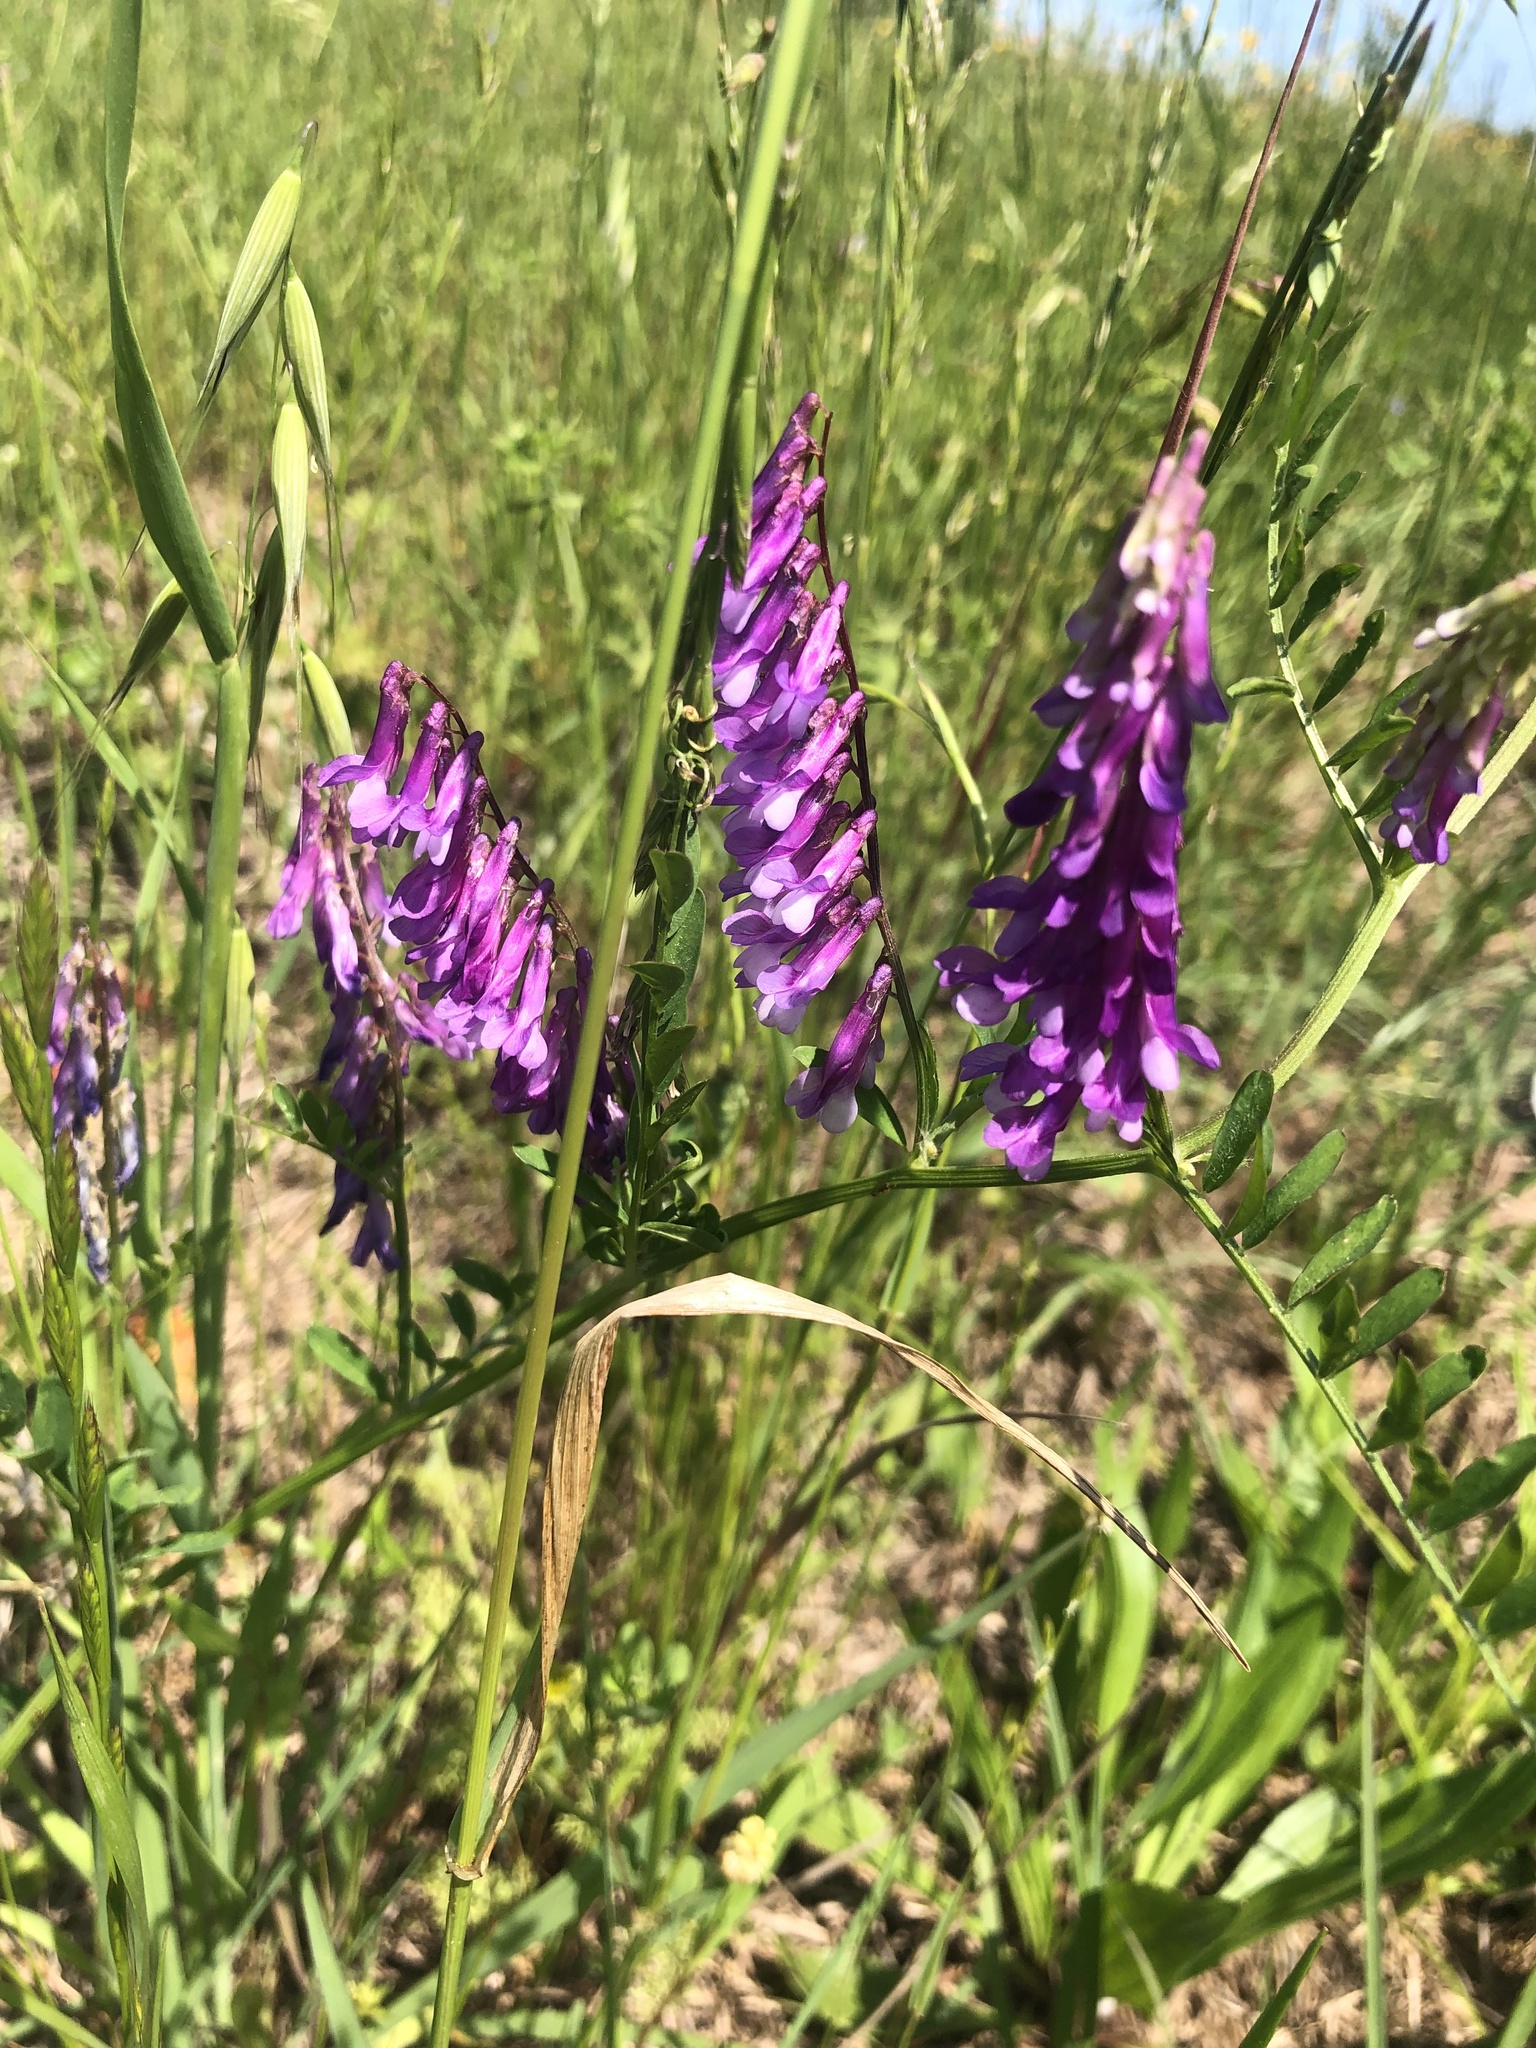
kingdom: Plantae
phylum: Tracheophyta
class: Magnoliopsida
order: Fabales
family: Fabaceae
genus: Vicia
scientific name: Vicia villosa
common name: Fodder vetch
